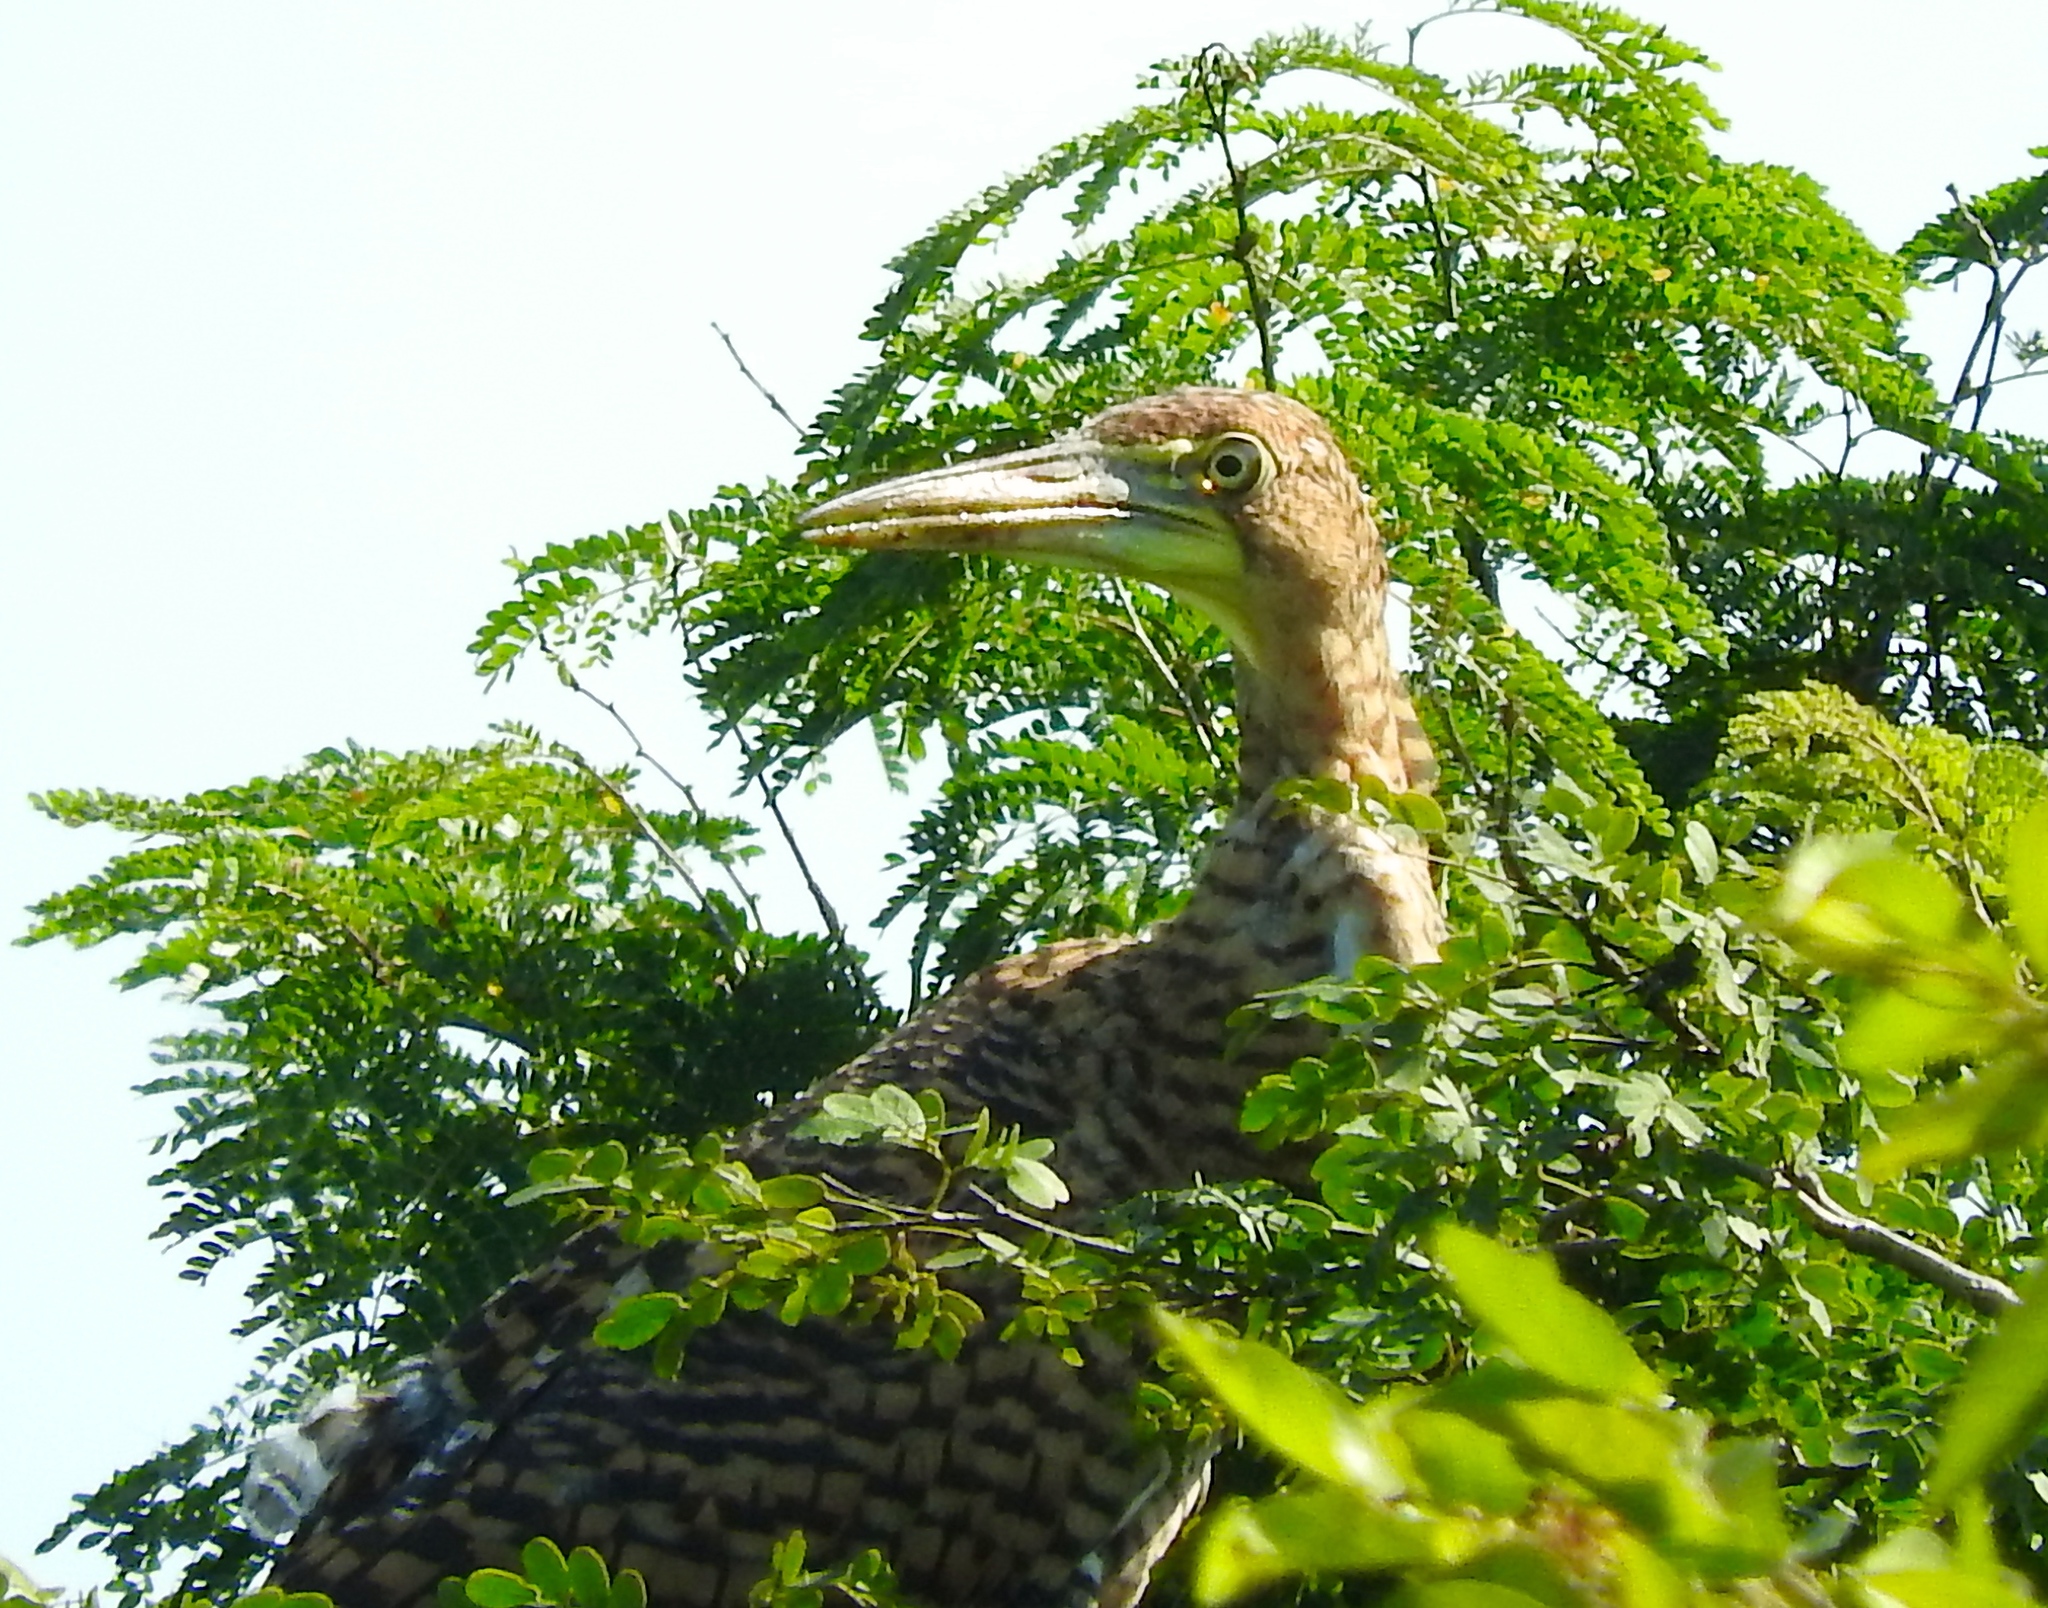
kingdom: Animalia
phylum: Chordata
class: Aves
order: Pelecaniformes
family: Ardeidae
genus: Tigrisoma
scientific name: Tigrisoma mexicanum
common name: Bare-throated tiger-heron
